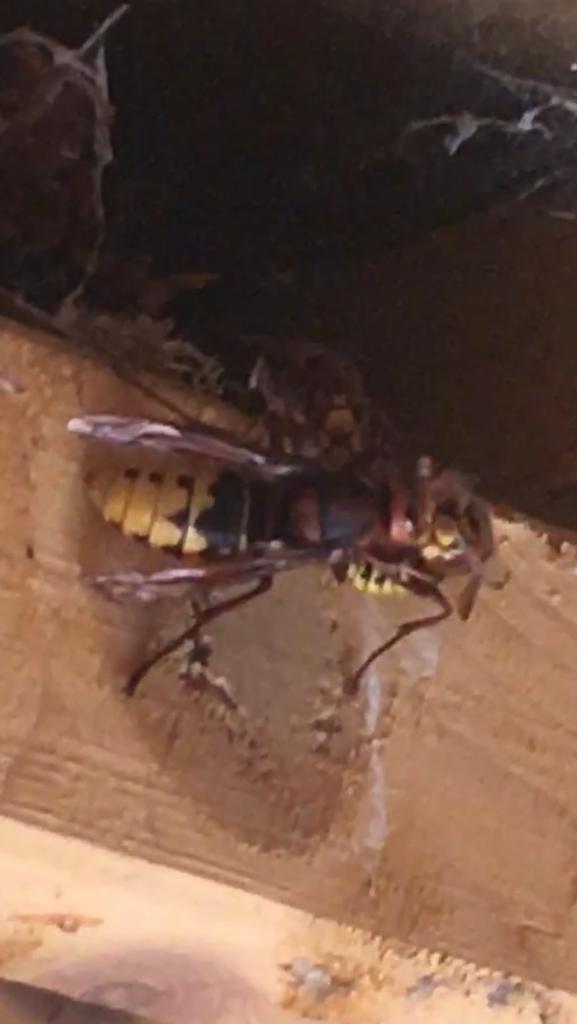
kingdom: Animalia
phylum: Arthropoda
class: Insecta
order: Hymenoptera
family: Vespidae
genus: Vespa
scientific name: Vespa crabro
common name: Hornet
